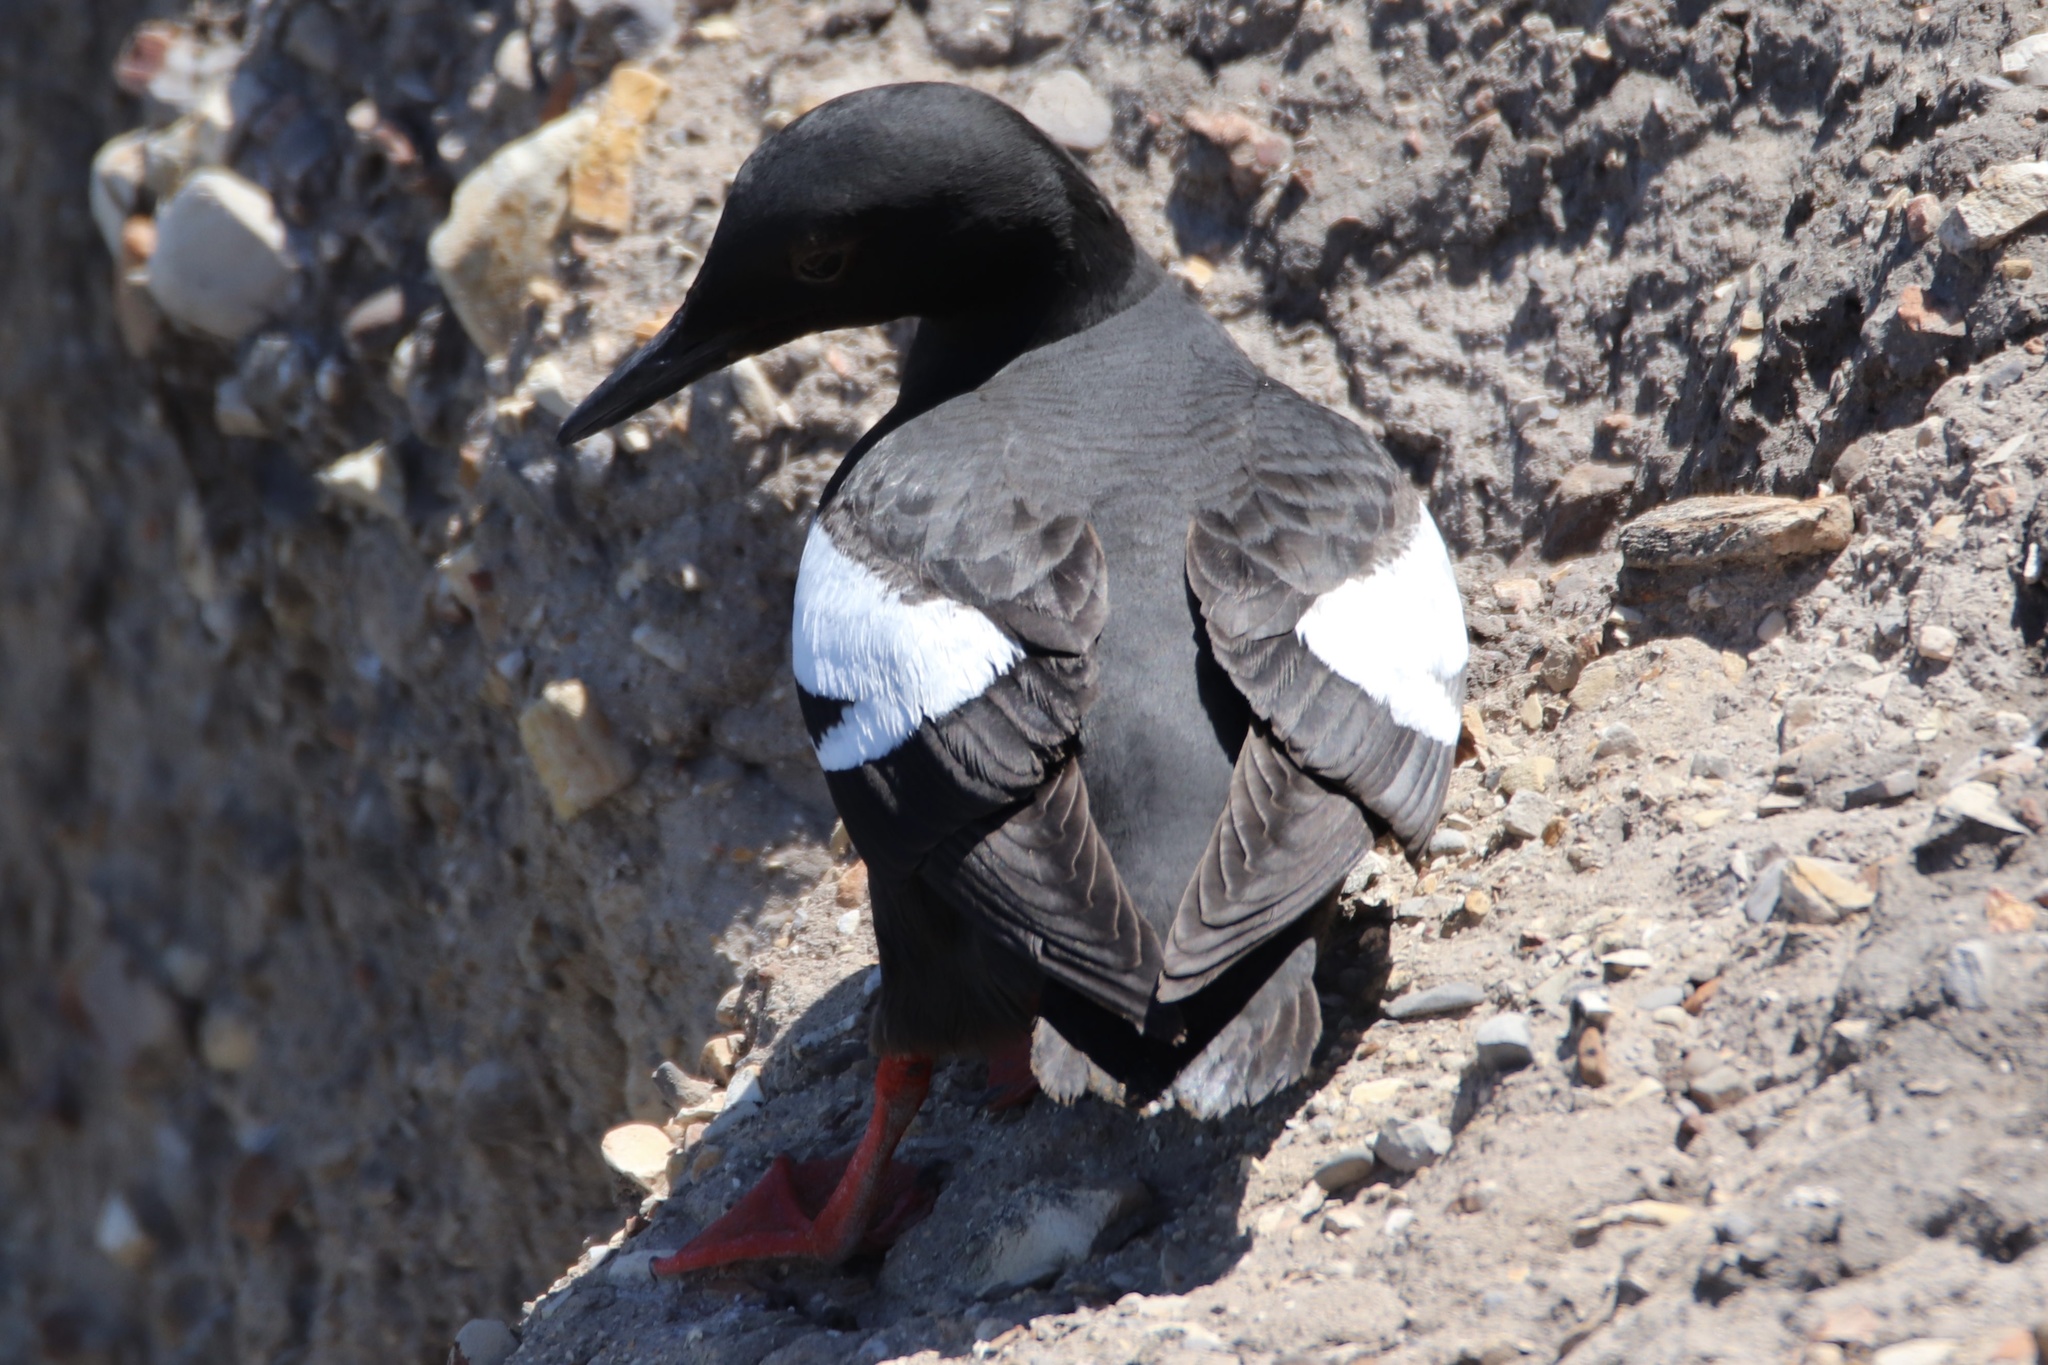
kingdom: Animalia
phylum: Chordata
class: Aves
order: Charadriiformes
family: Alcidae
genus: Cepphus
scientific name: Cepphus columba
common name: Pigeon guillemot
